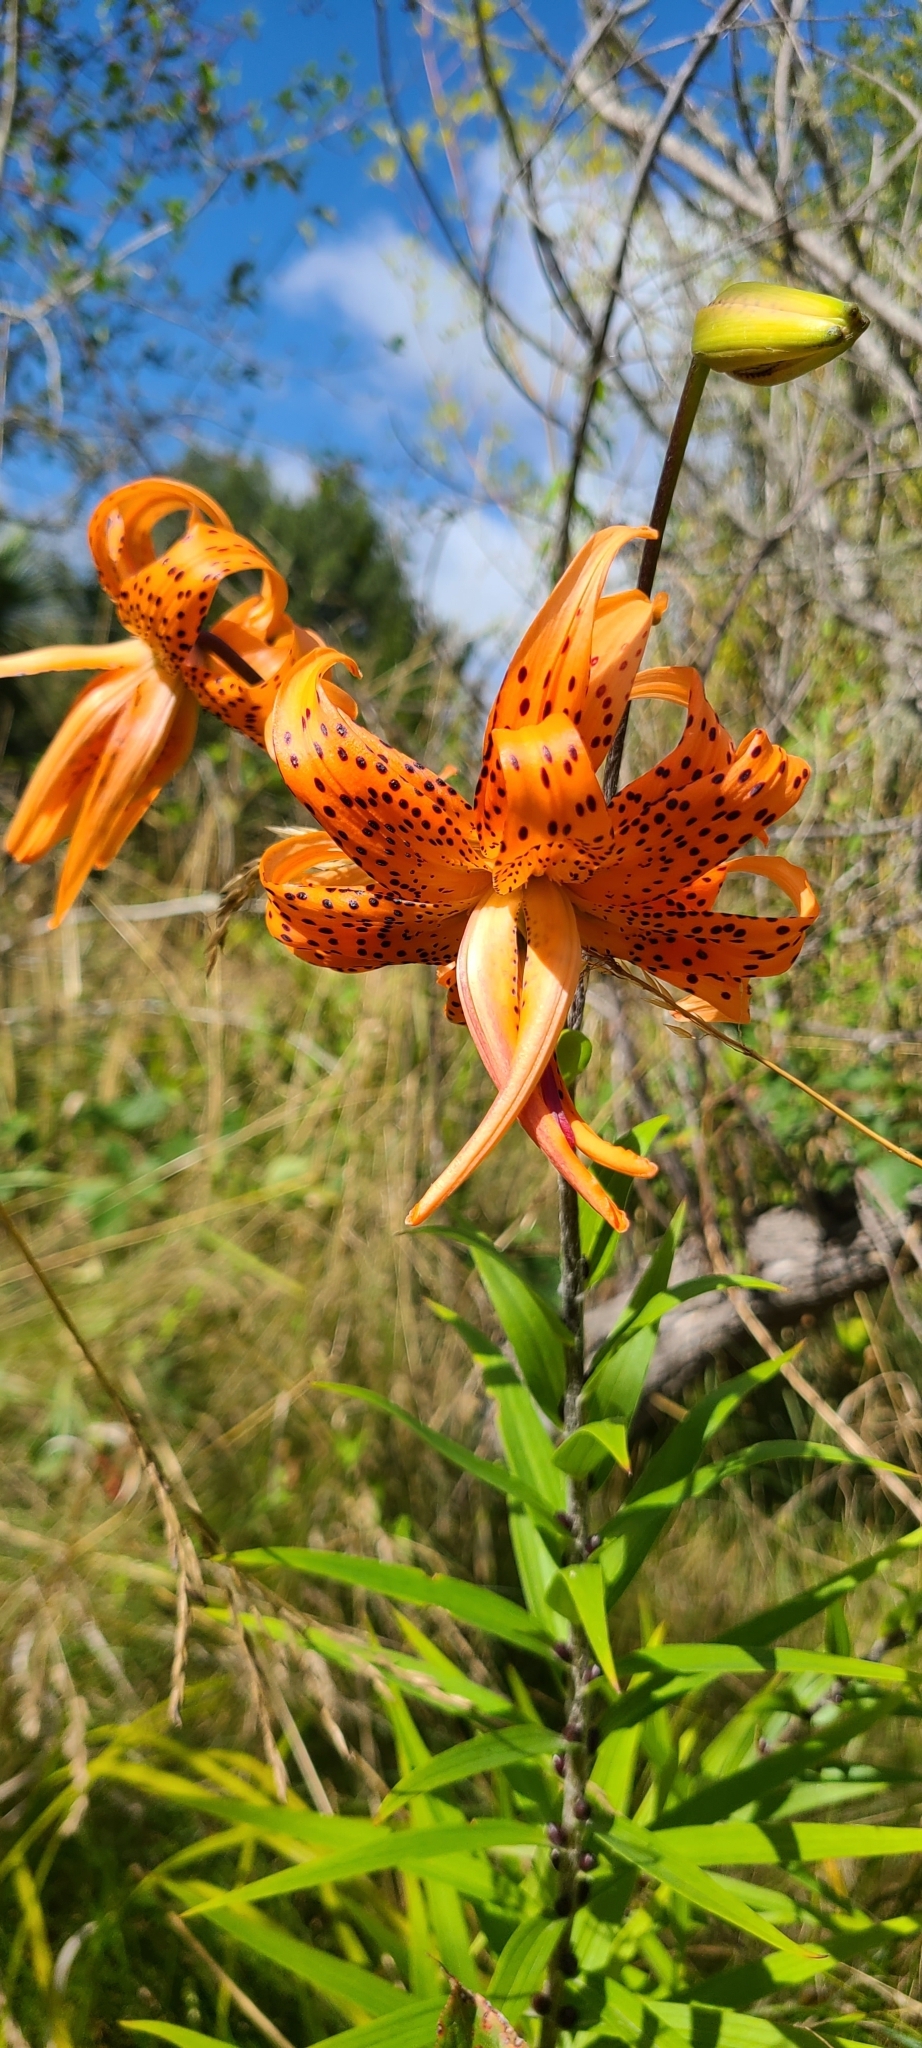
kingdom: Plantae
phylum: Tracheophyta
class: Liliopsida
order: Liliales
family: Liliaceae
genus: Lilium
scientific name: Lilium lancifolium
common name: Tiger lily
